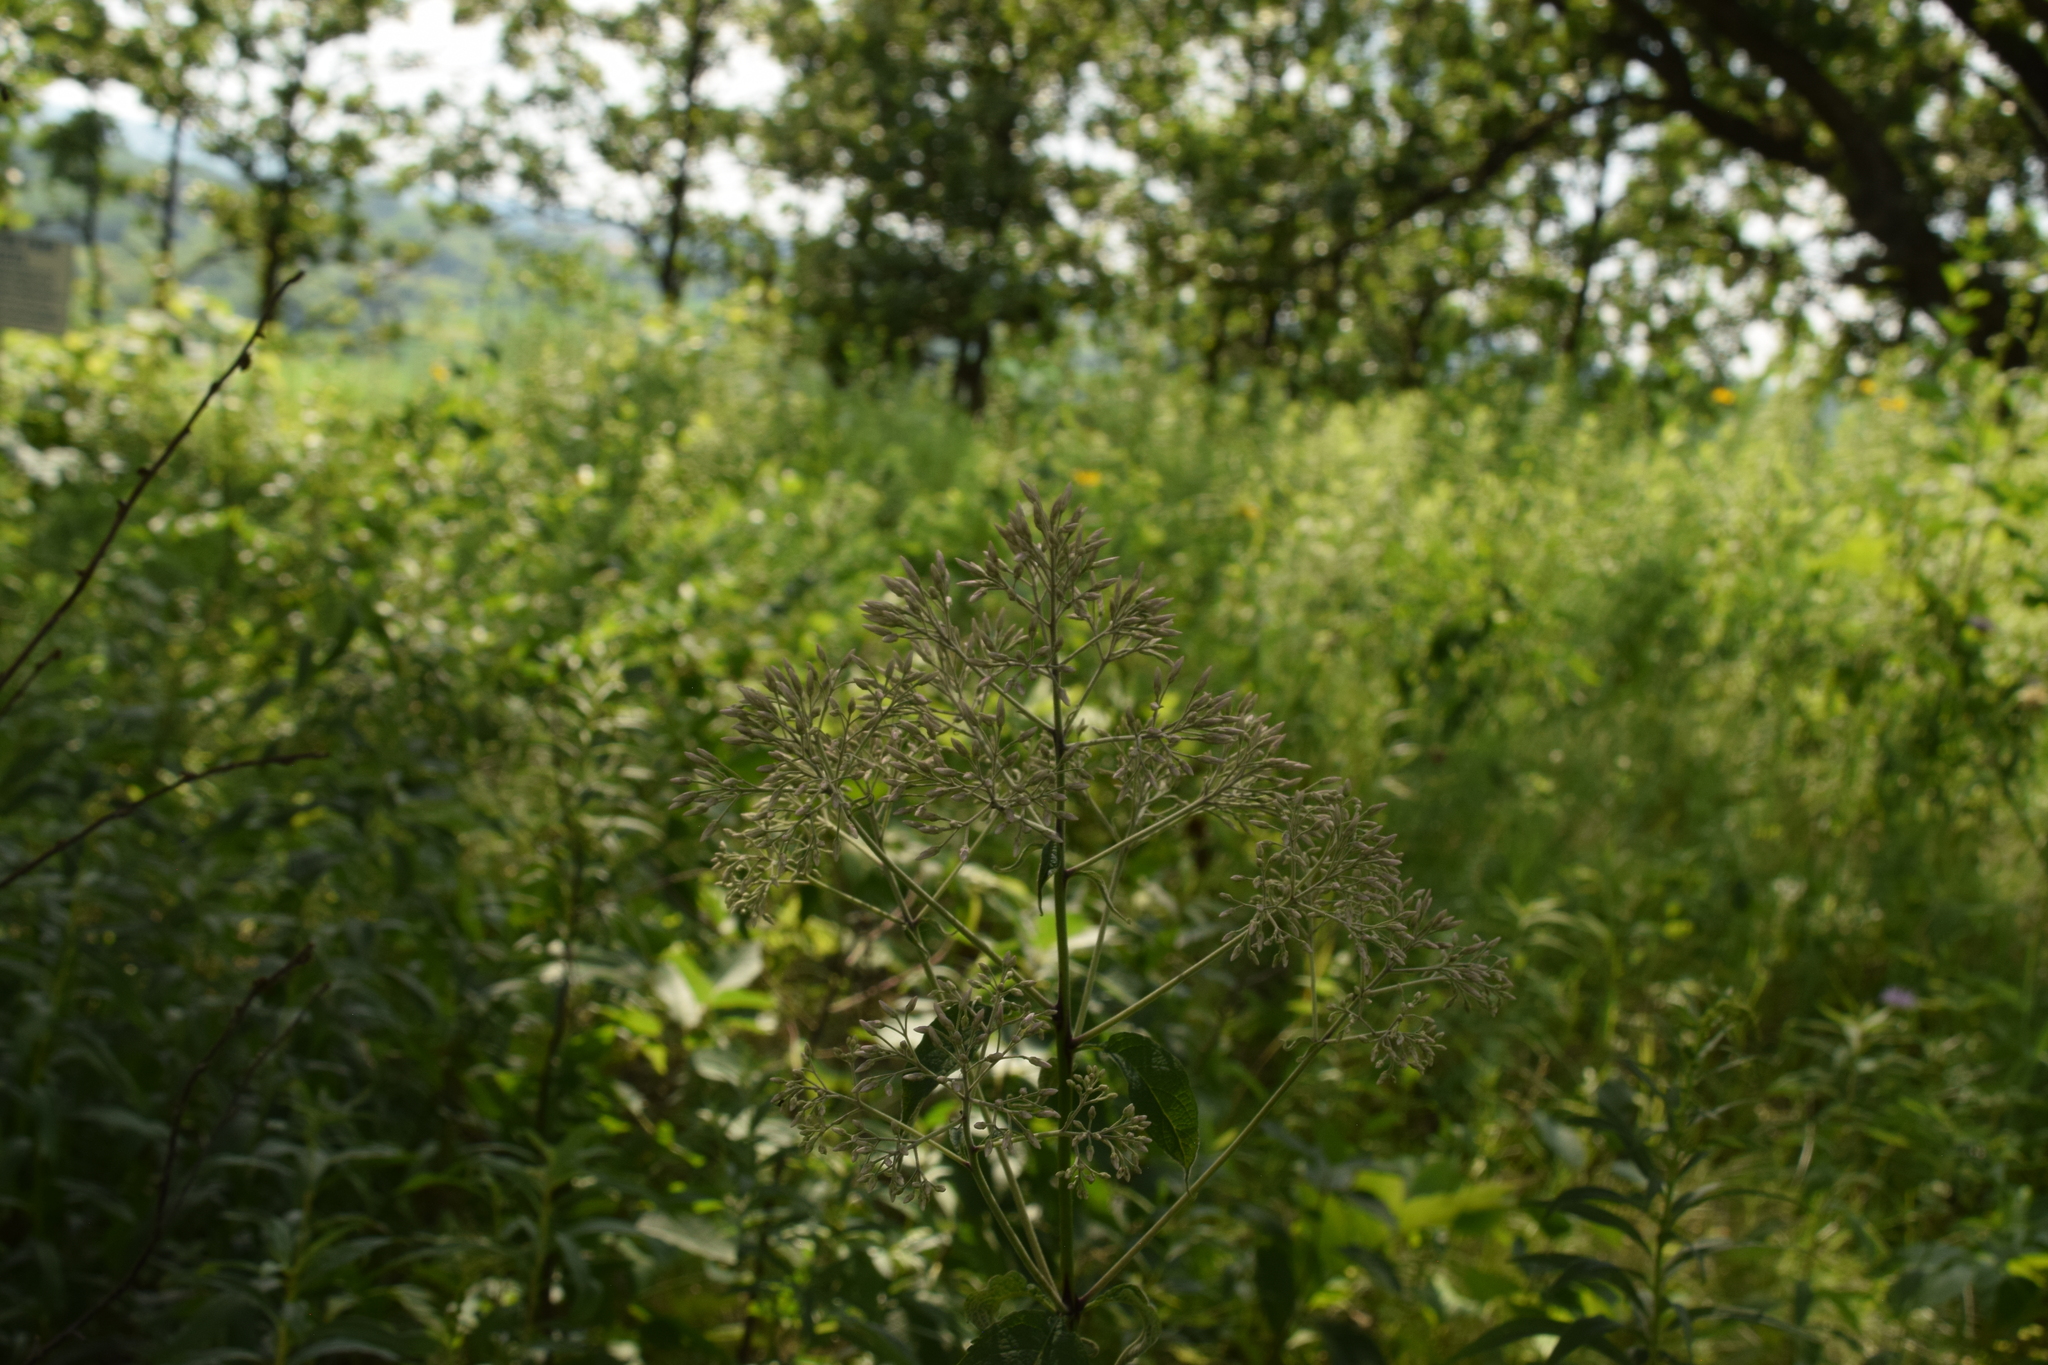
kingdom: Plantae
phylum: Tracheophyta
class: Magnoliopsida
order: Asterales
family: Asteraceae
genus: Eutrochium
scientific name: Eutrochium purpureum
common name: Gravelroot
